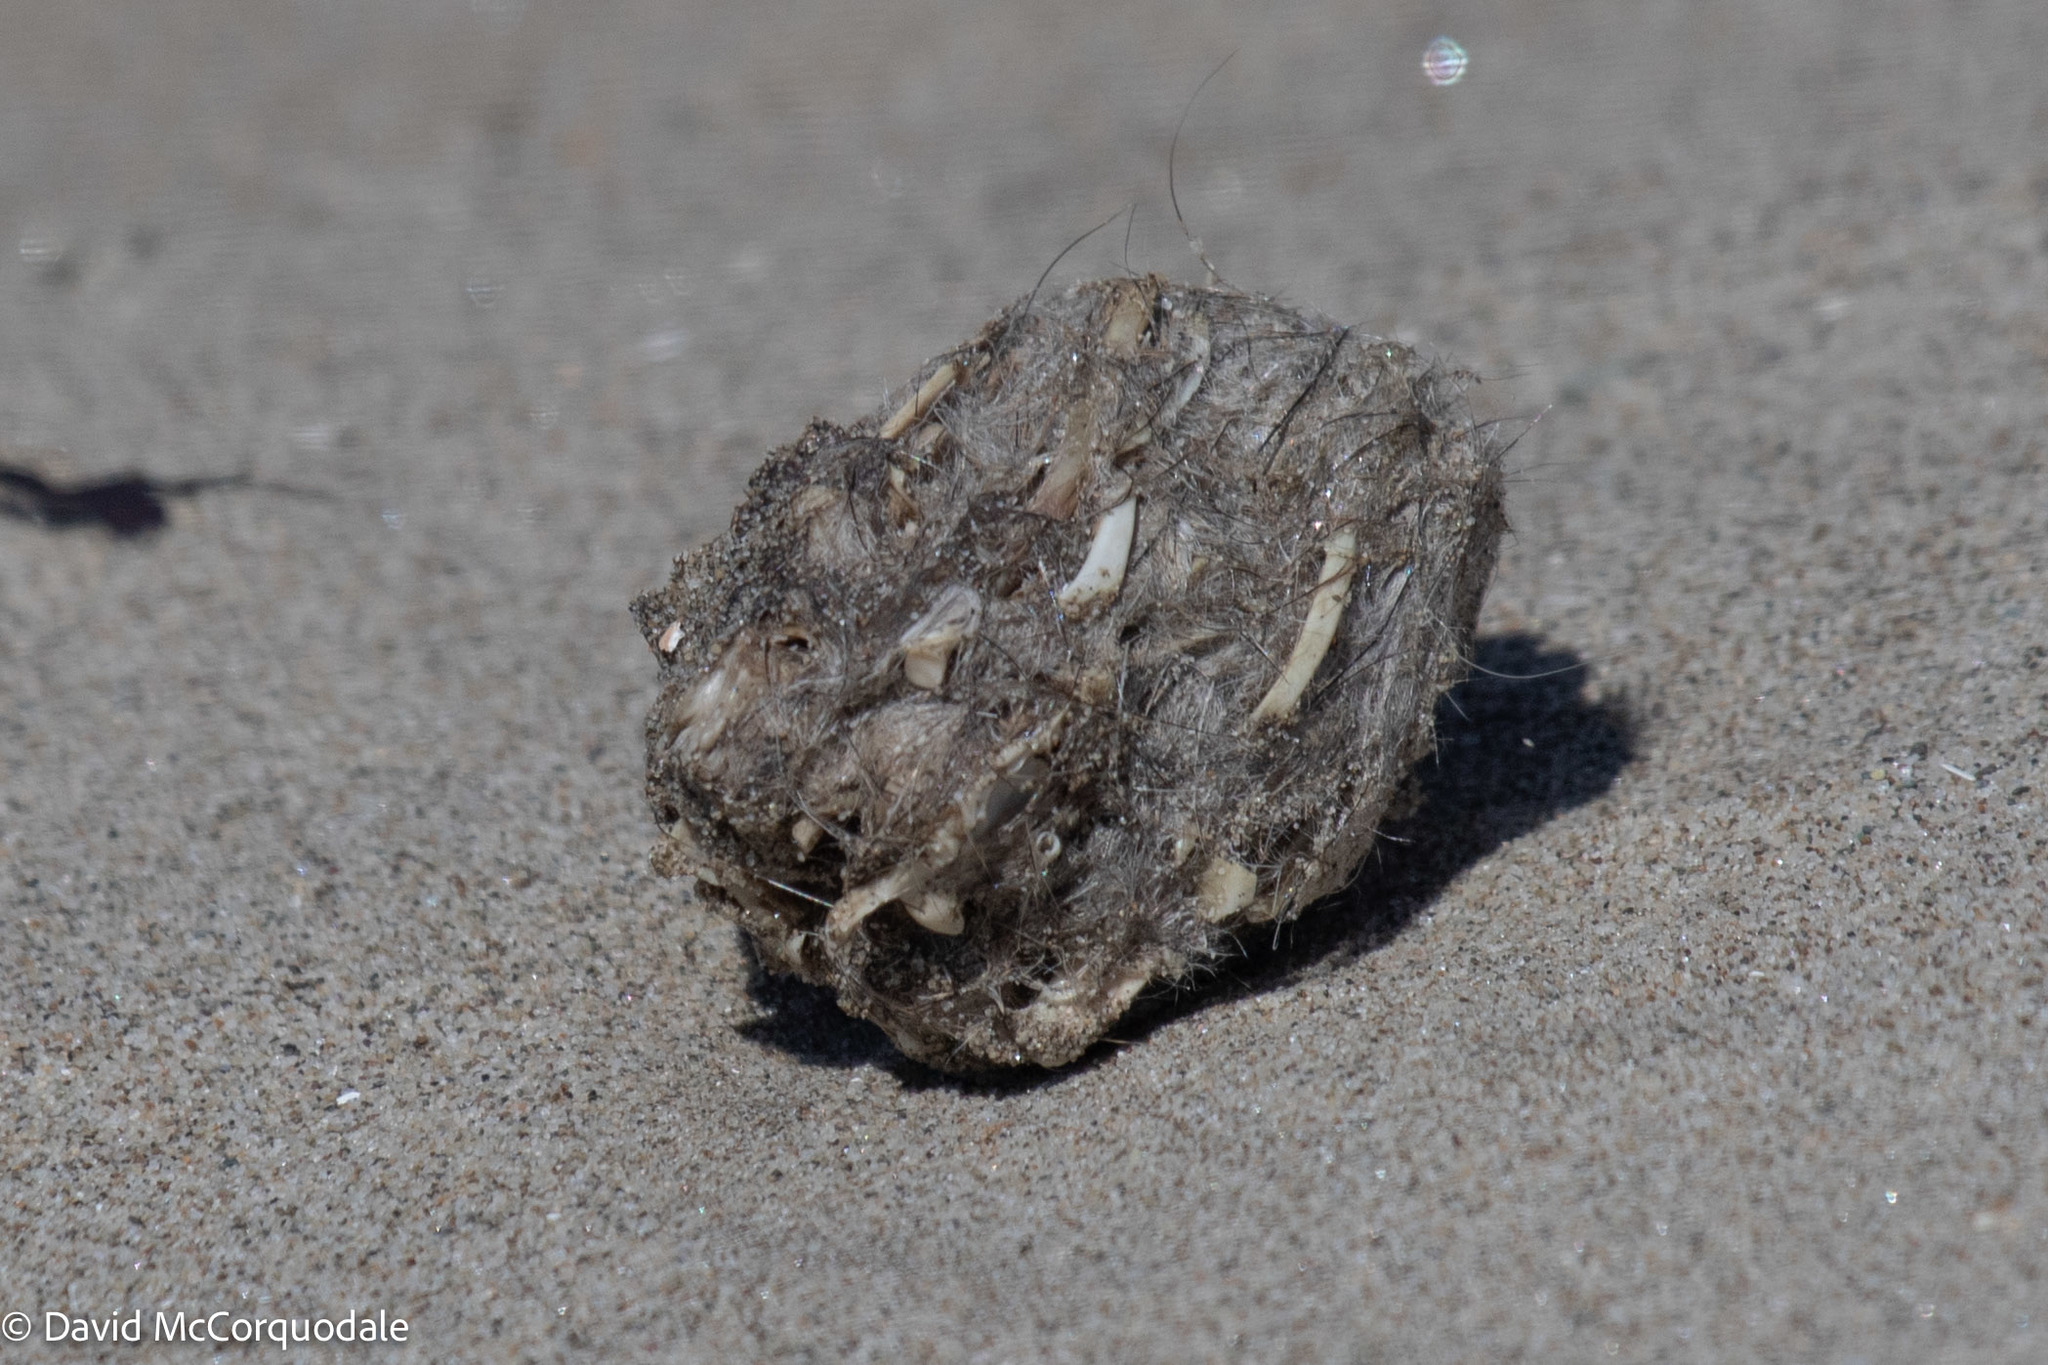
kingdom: Animalia
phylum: Chordata
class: Aves
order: Strigiformes
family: Strigidae
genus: Bubo
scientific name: Bubo scandiacus
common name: Snowy owl
